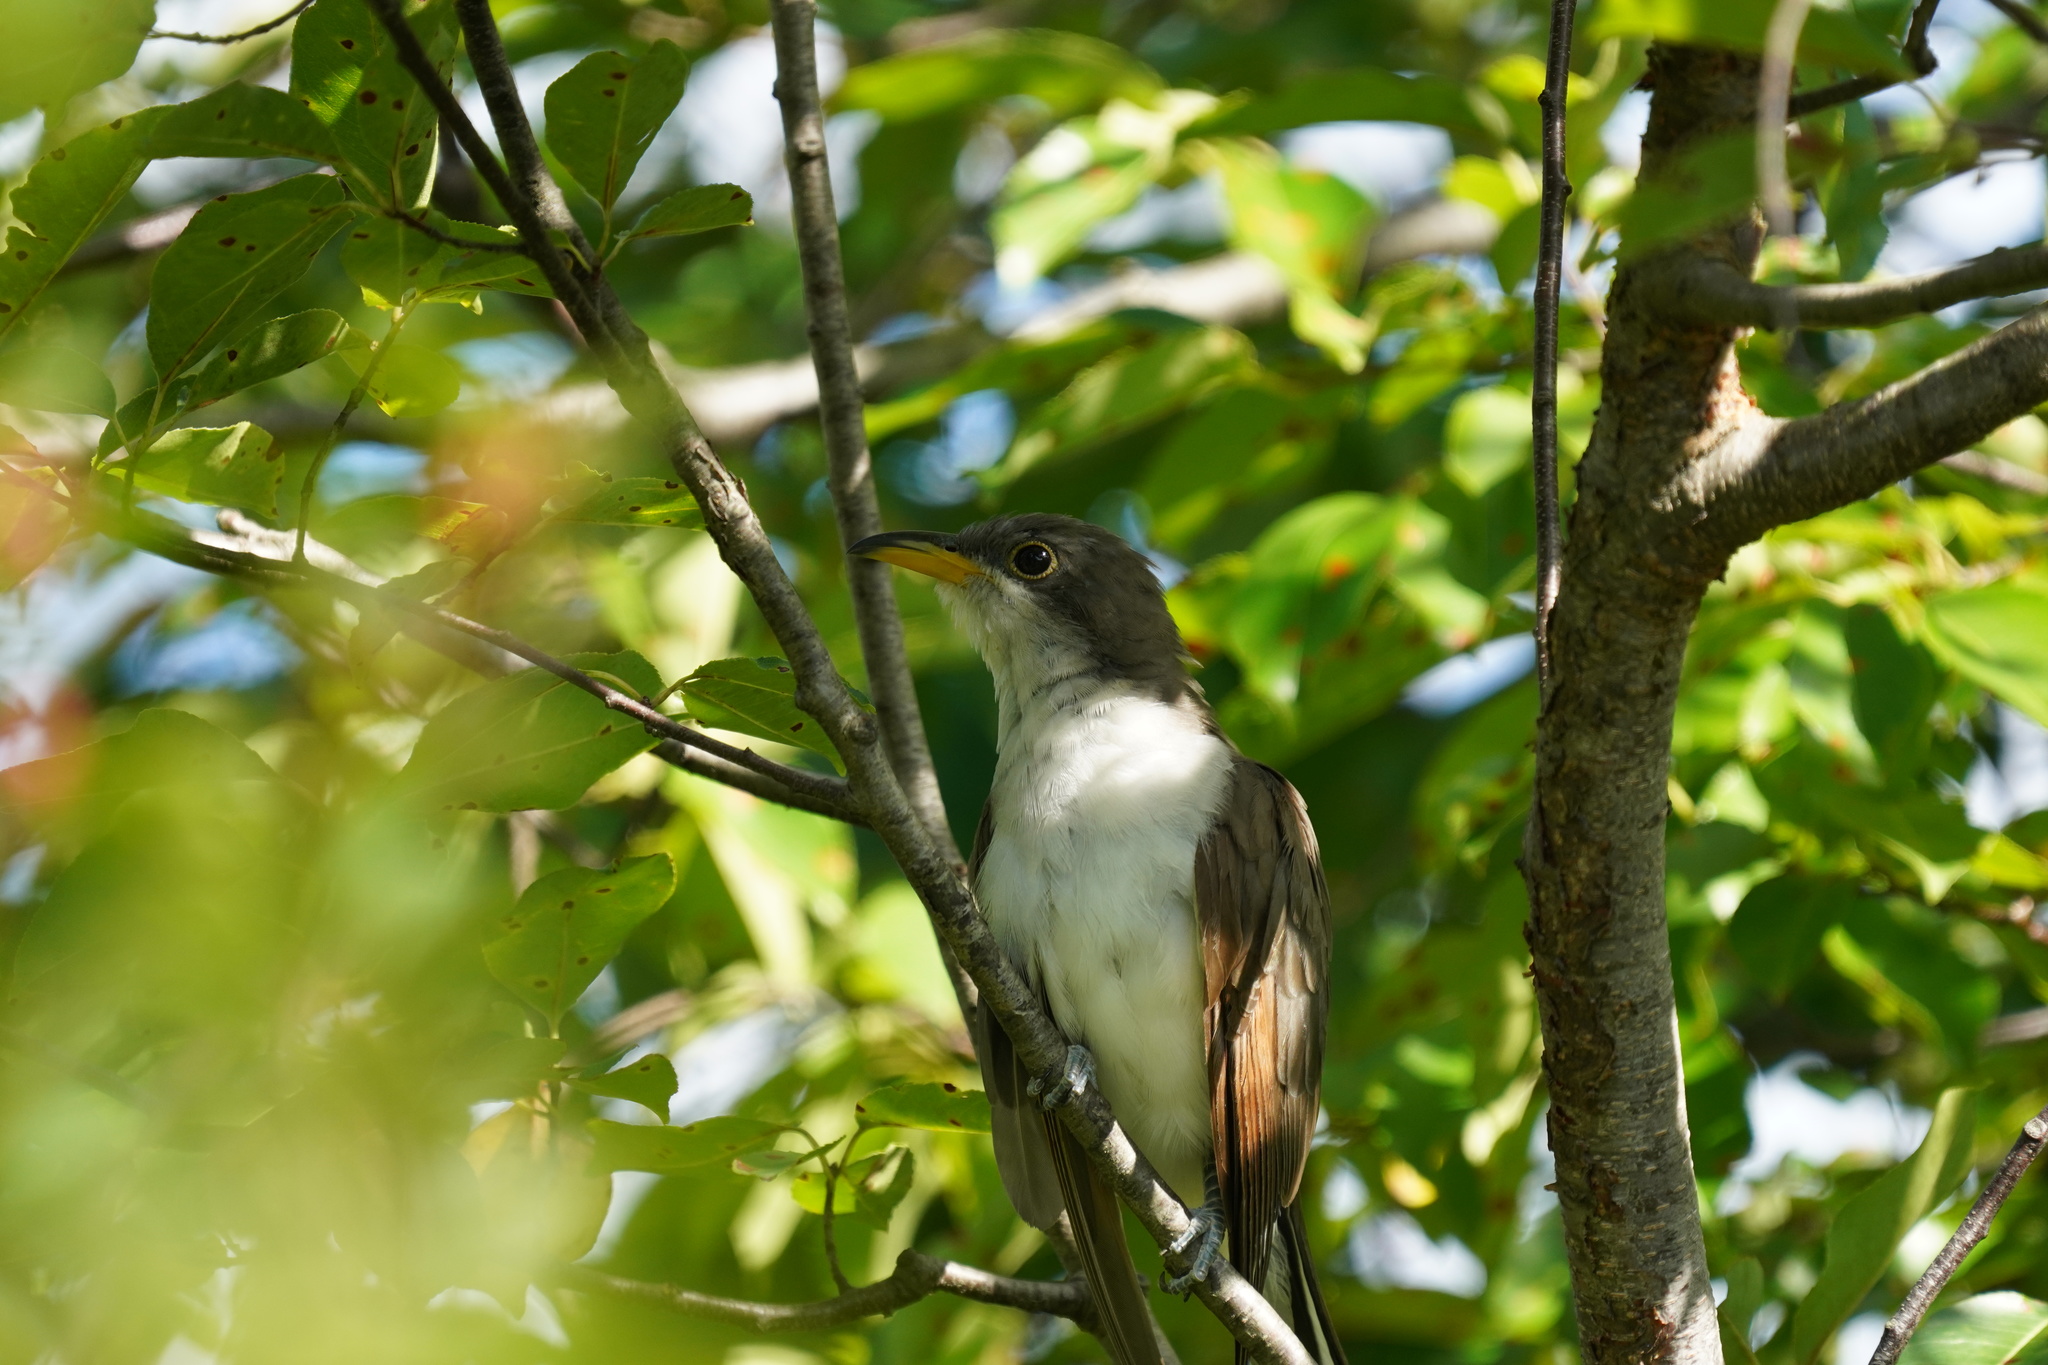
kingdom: Animalia
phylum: Chordata
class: Aves
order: Cuculiformes
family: Cuculidae
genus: Coccyzus
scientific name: Coccyzus americanus
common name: Yellow-billed cuckoo
